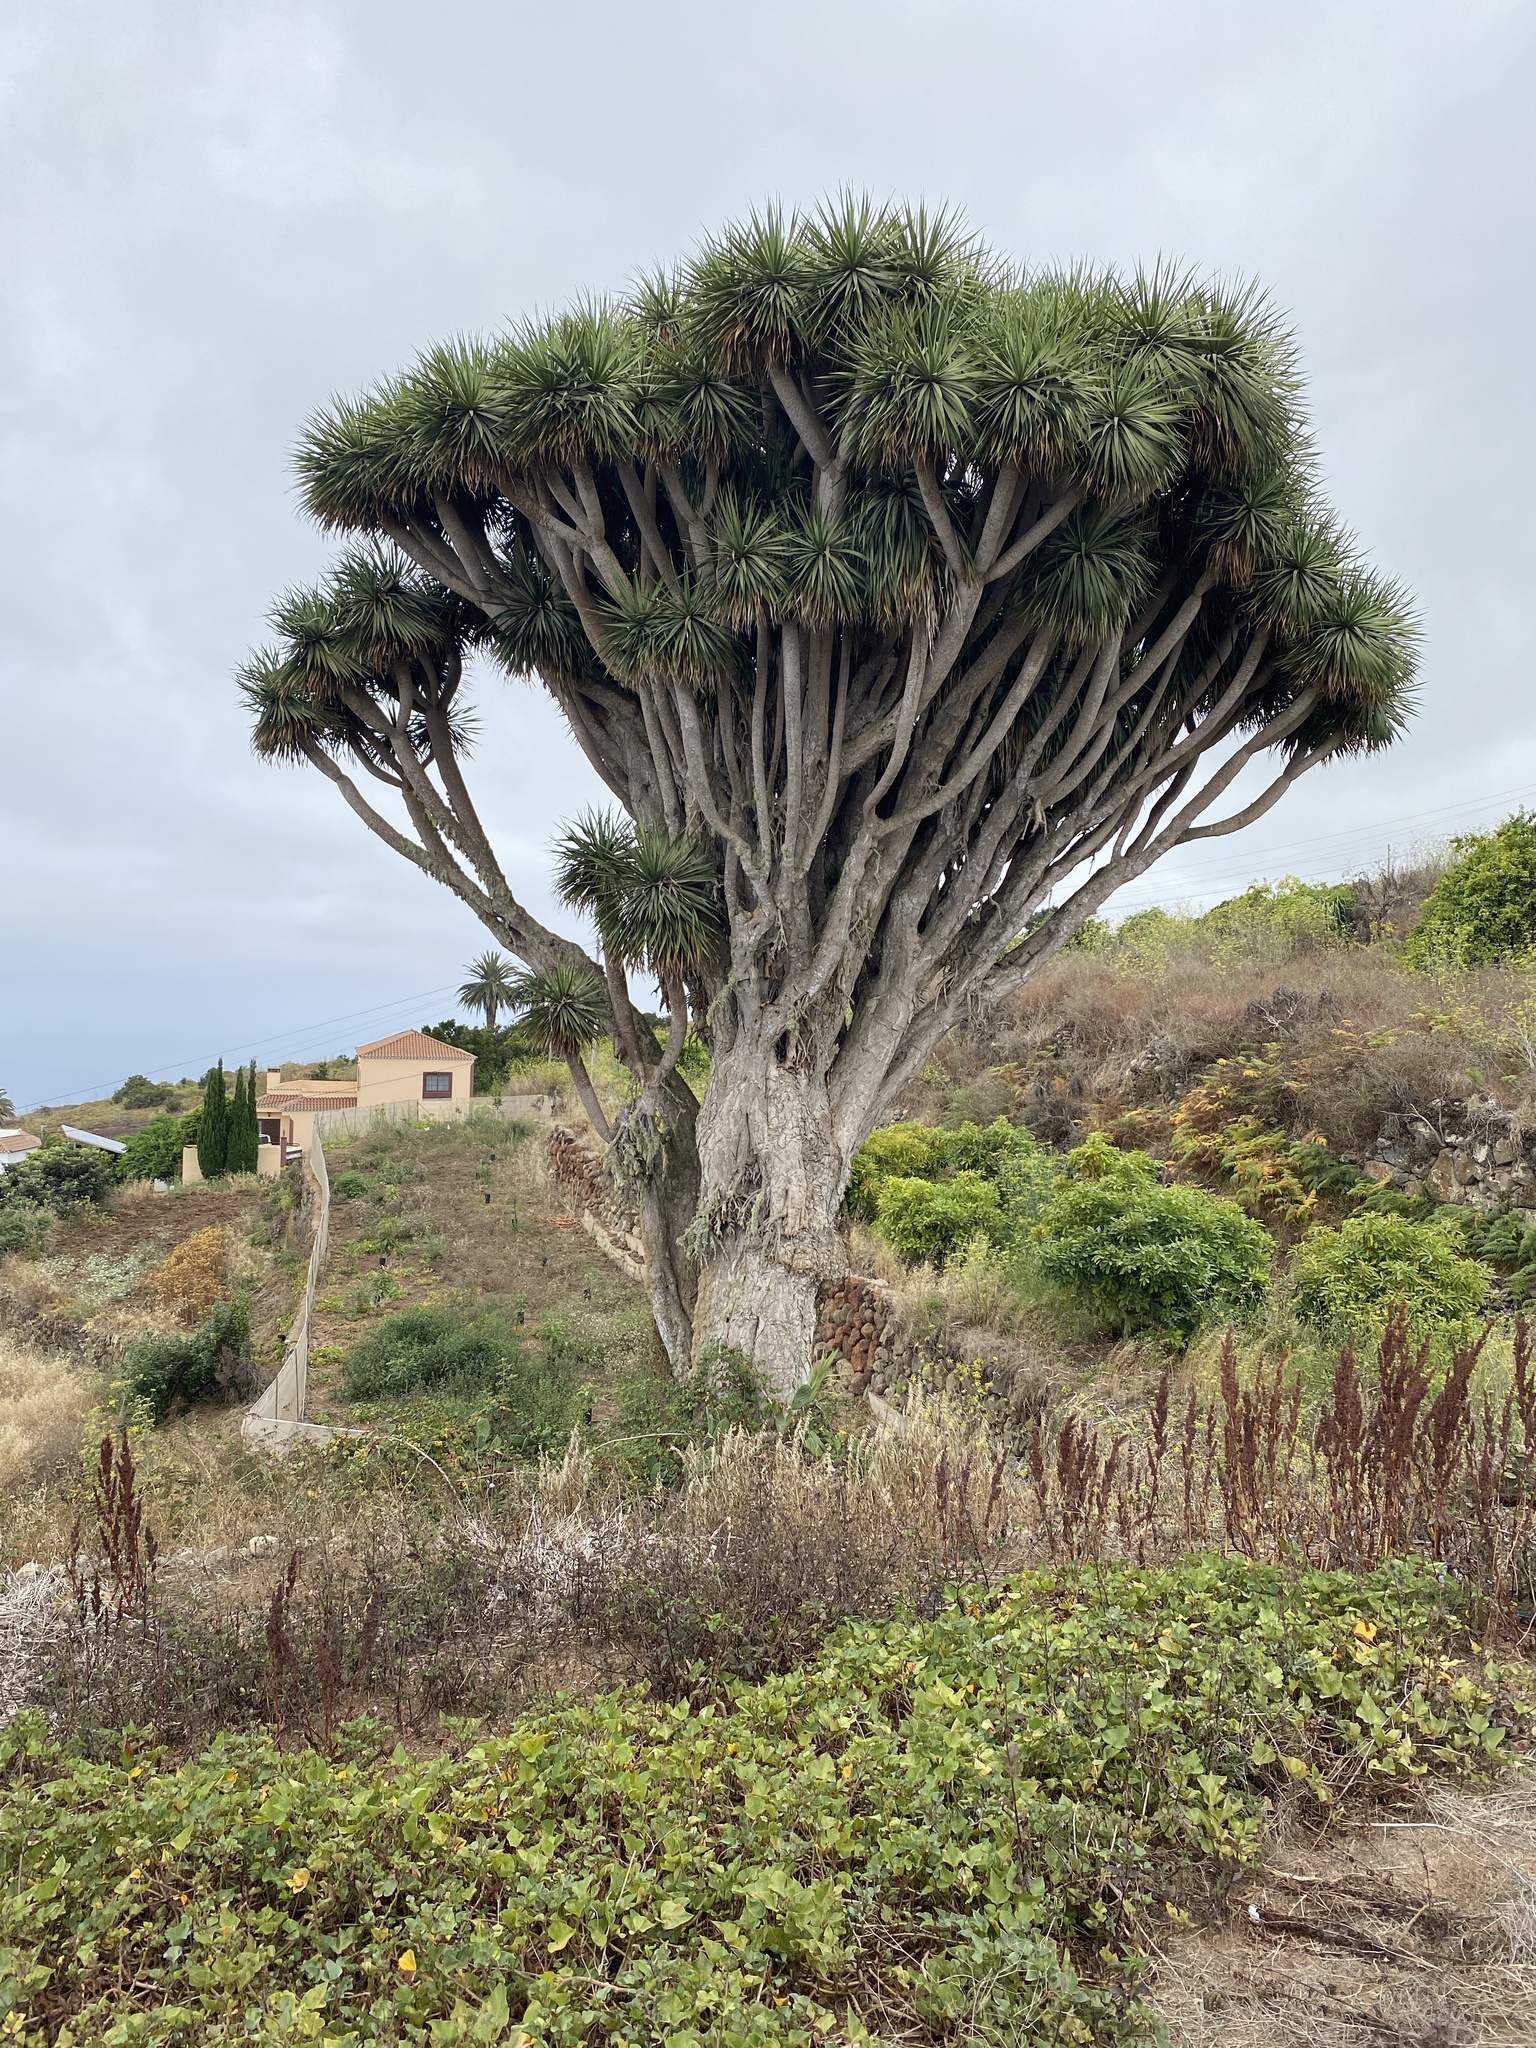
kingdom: Plantae
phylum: Tracheophyta
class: Liliopsida
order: Asparagales
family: Asparagaceae
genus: Dracaena
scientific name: Dracaena draco
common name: Canary island dragon tree
